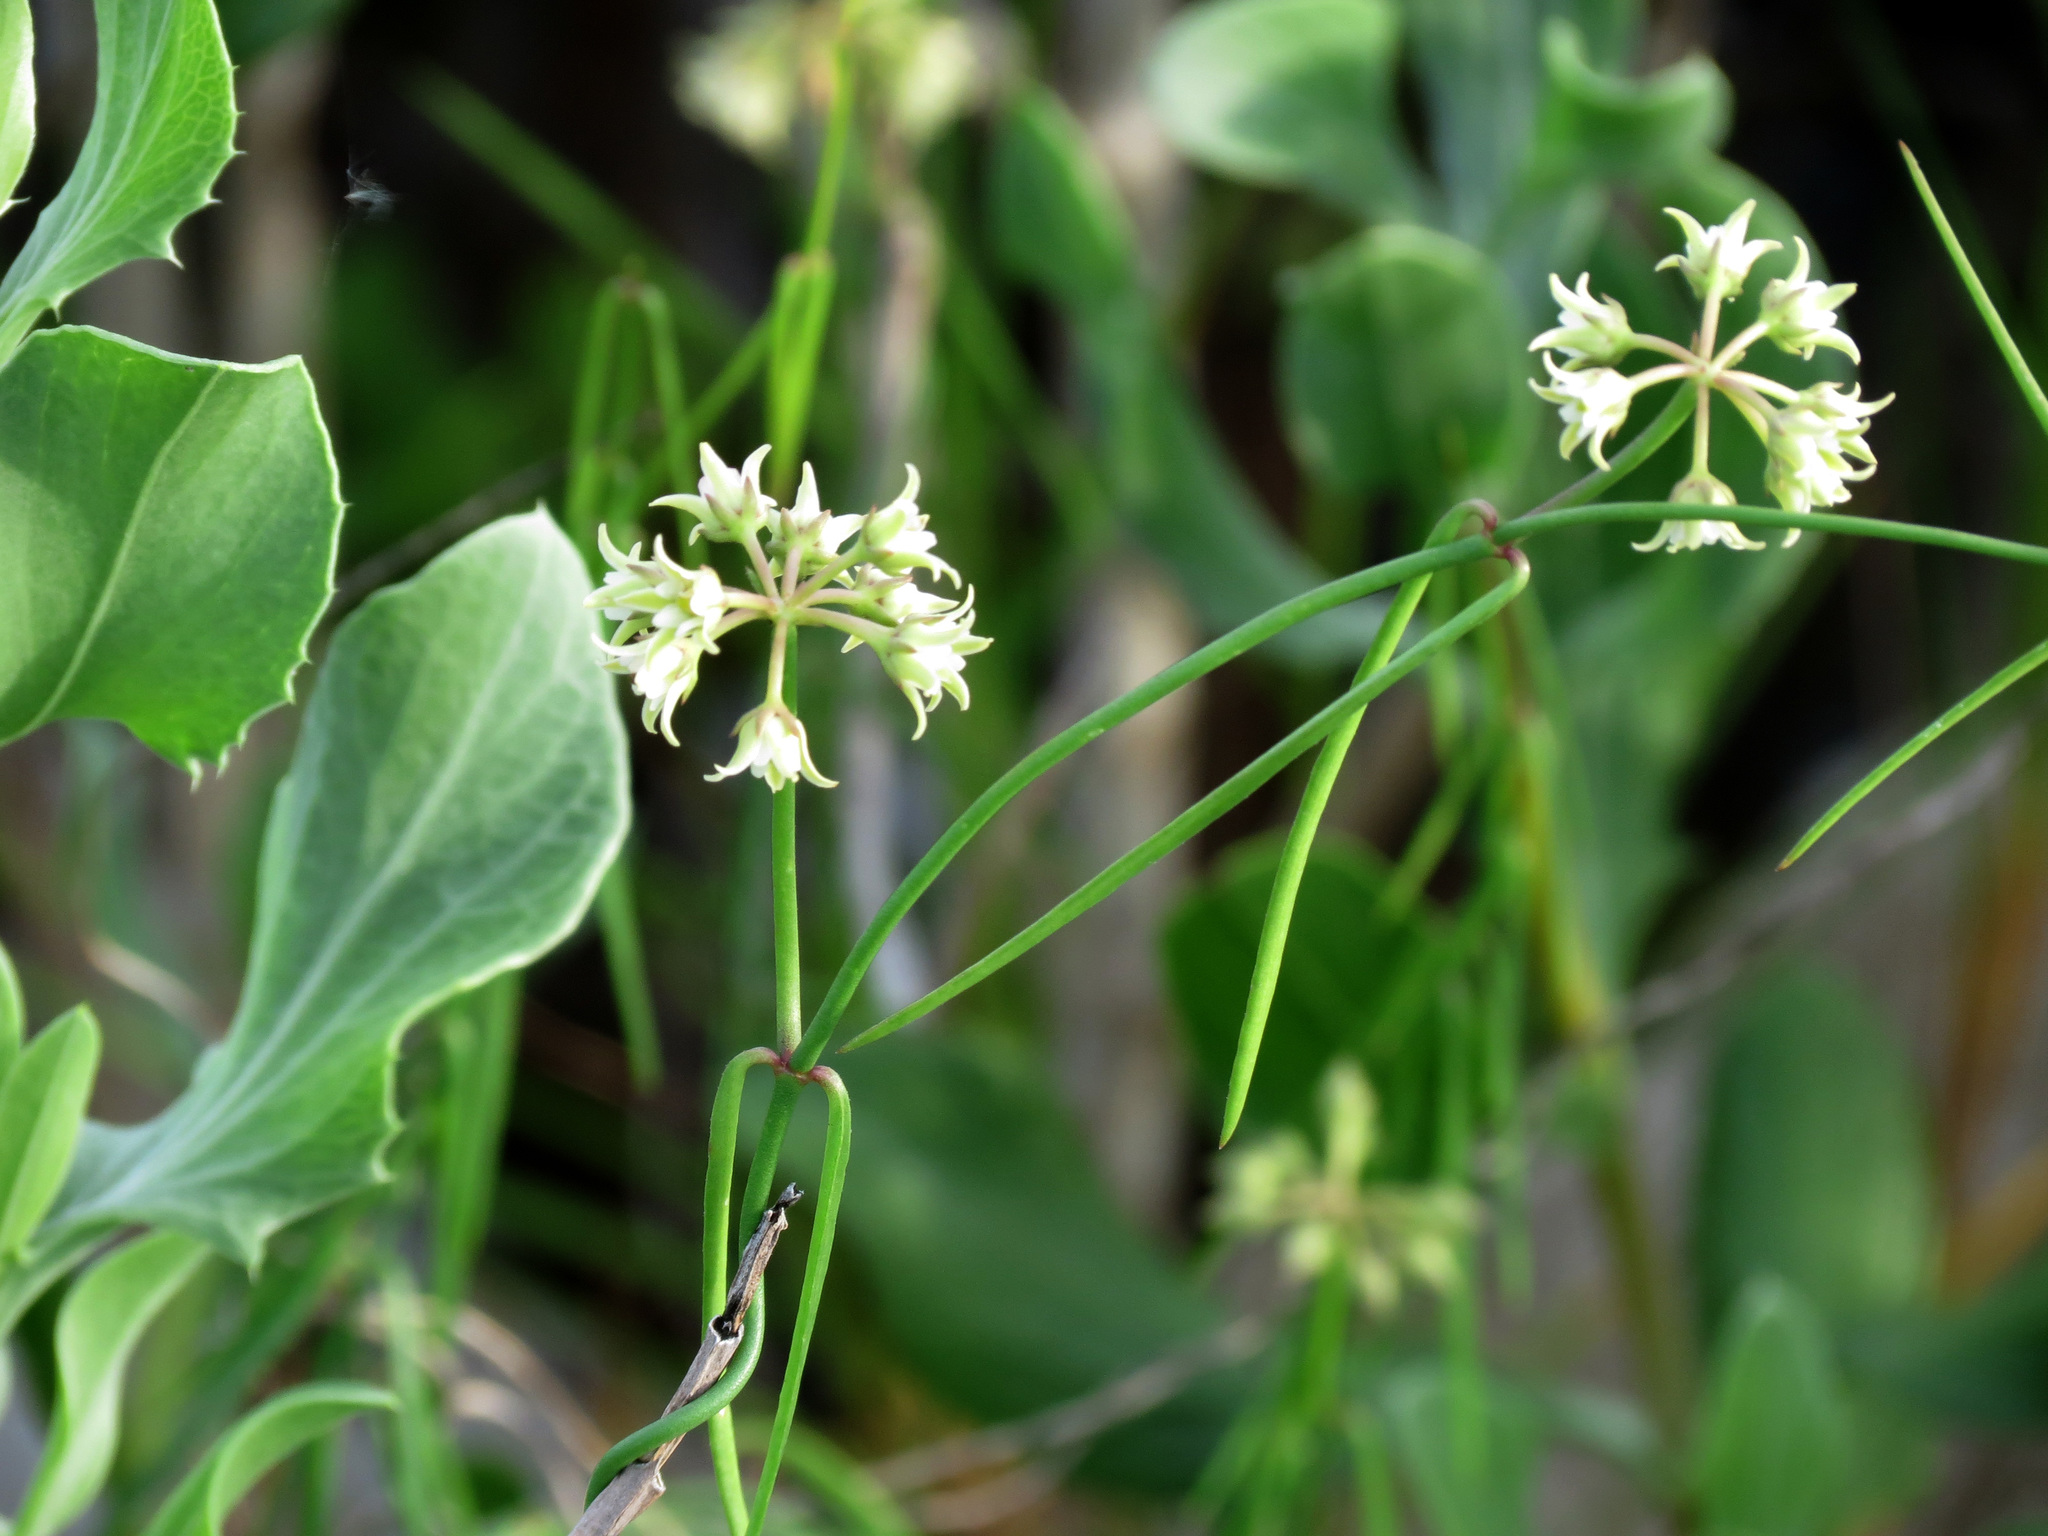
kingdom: Plantae
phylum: Tracheophyta
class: Magnoliopsida
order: Gentianales
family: Apocynaceae
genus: Pattalias
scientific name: Pattalias
